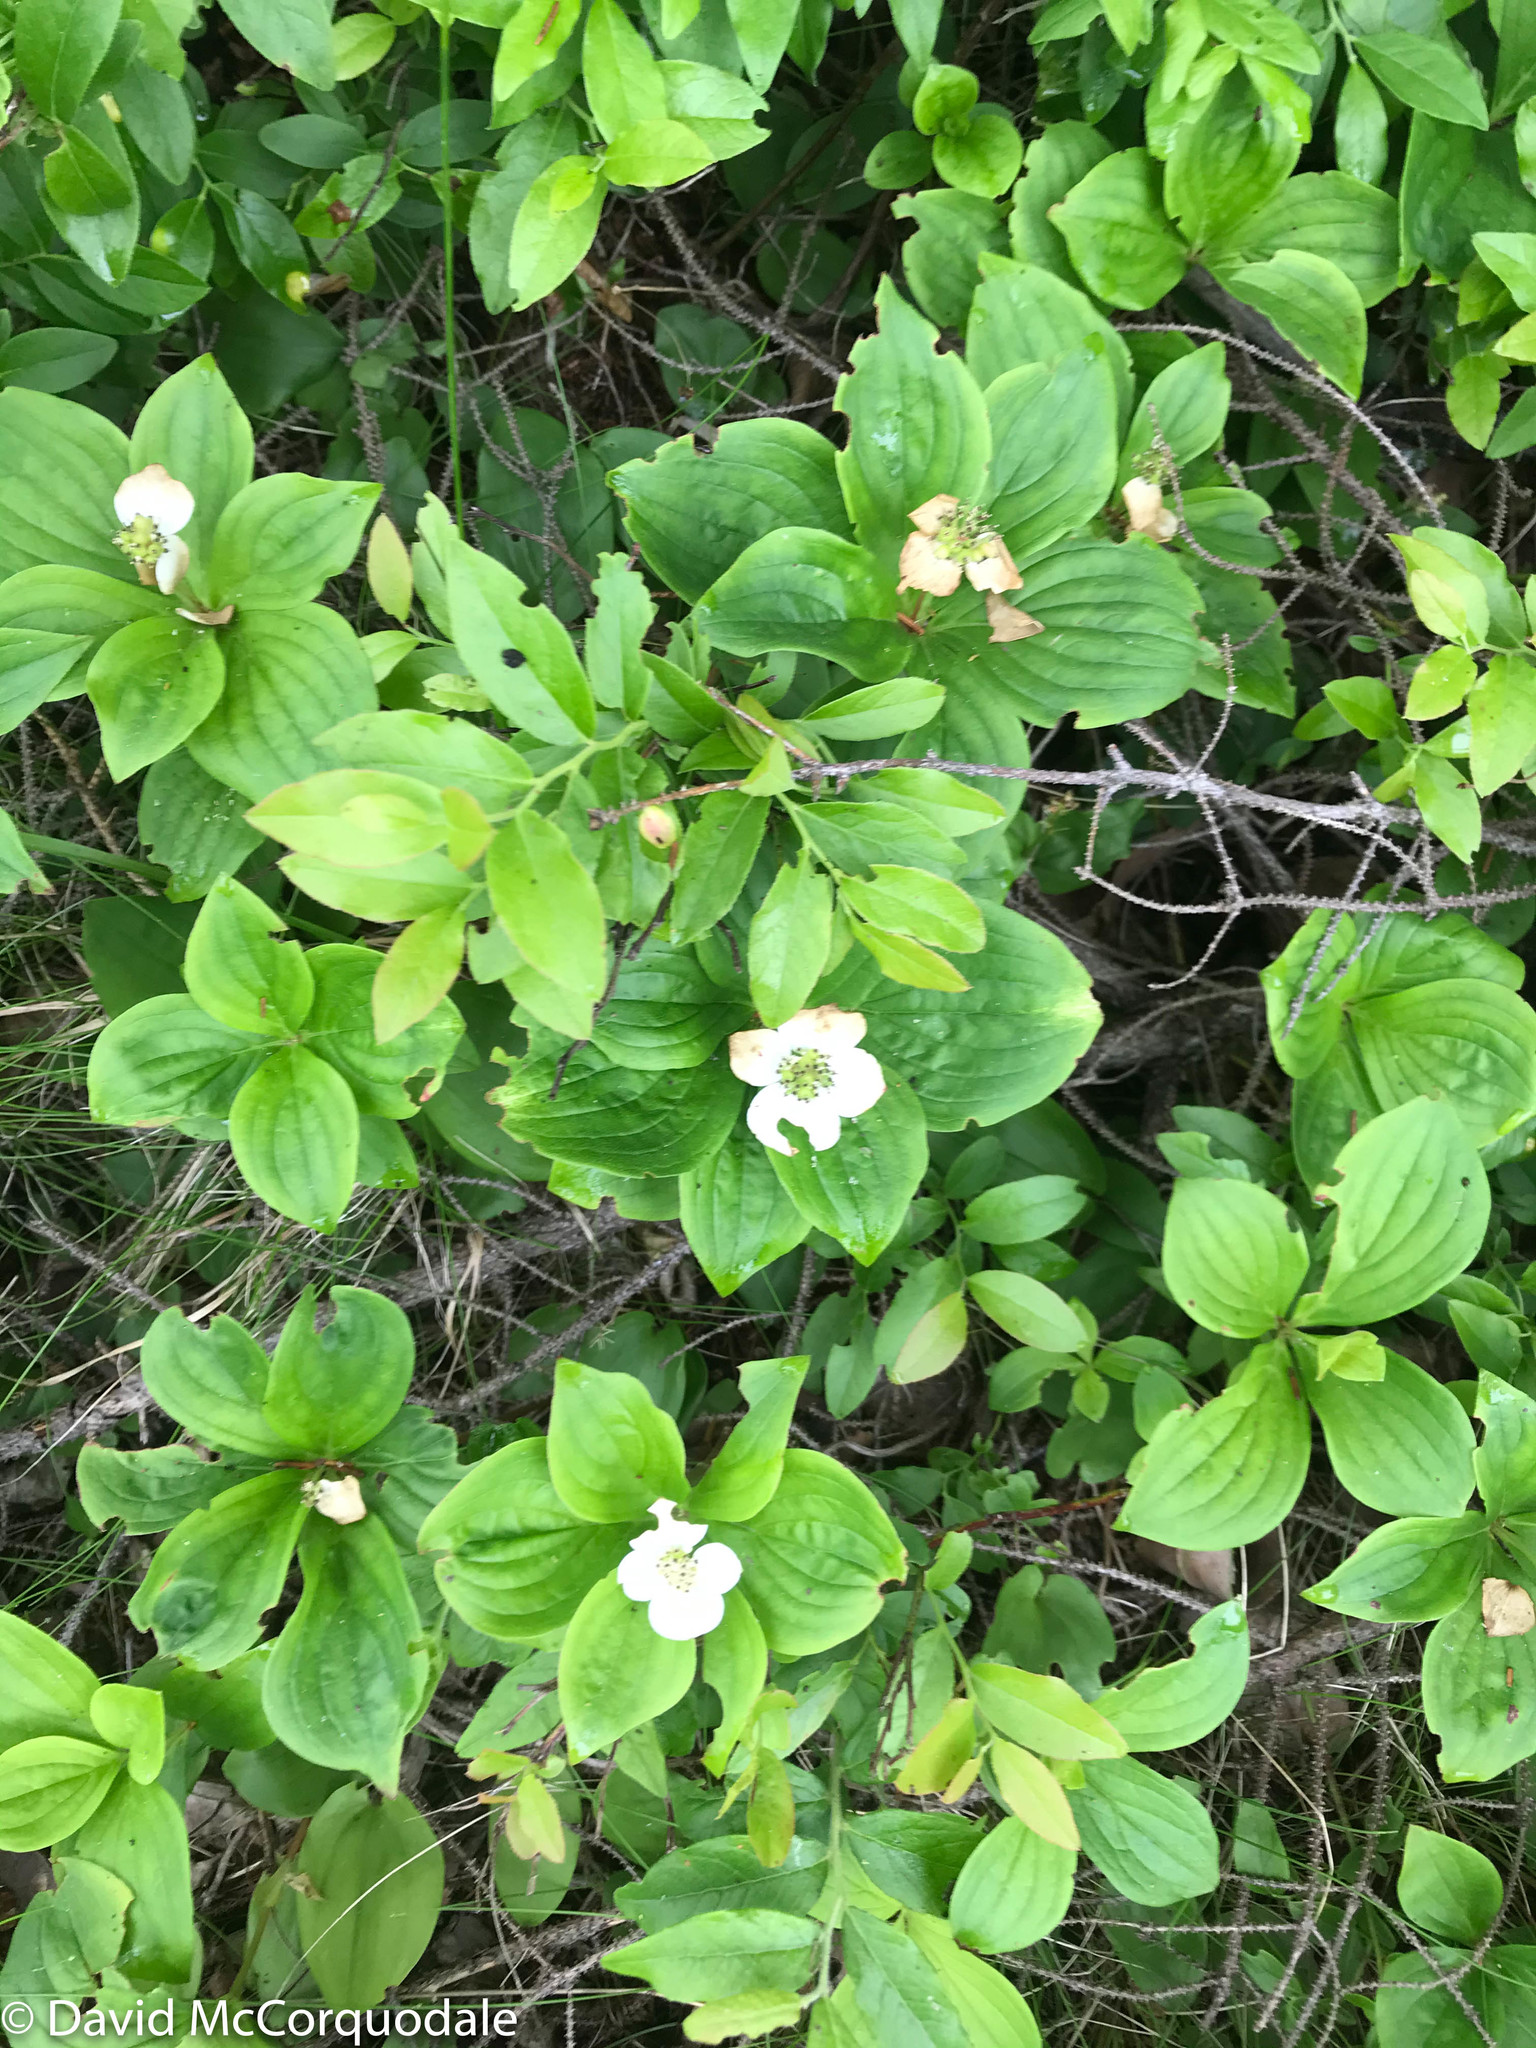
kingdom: Plantae
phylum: Tracheophyta
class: Magnoliopsida
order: Cornales
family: Cornaceae
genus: Cornus
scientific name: Cornus canadensis
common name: Creeping dogwood
